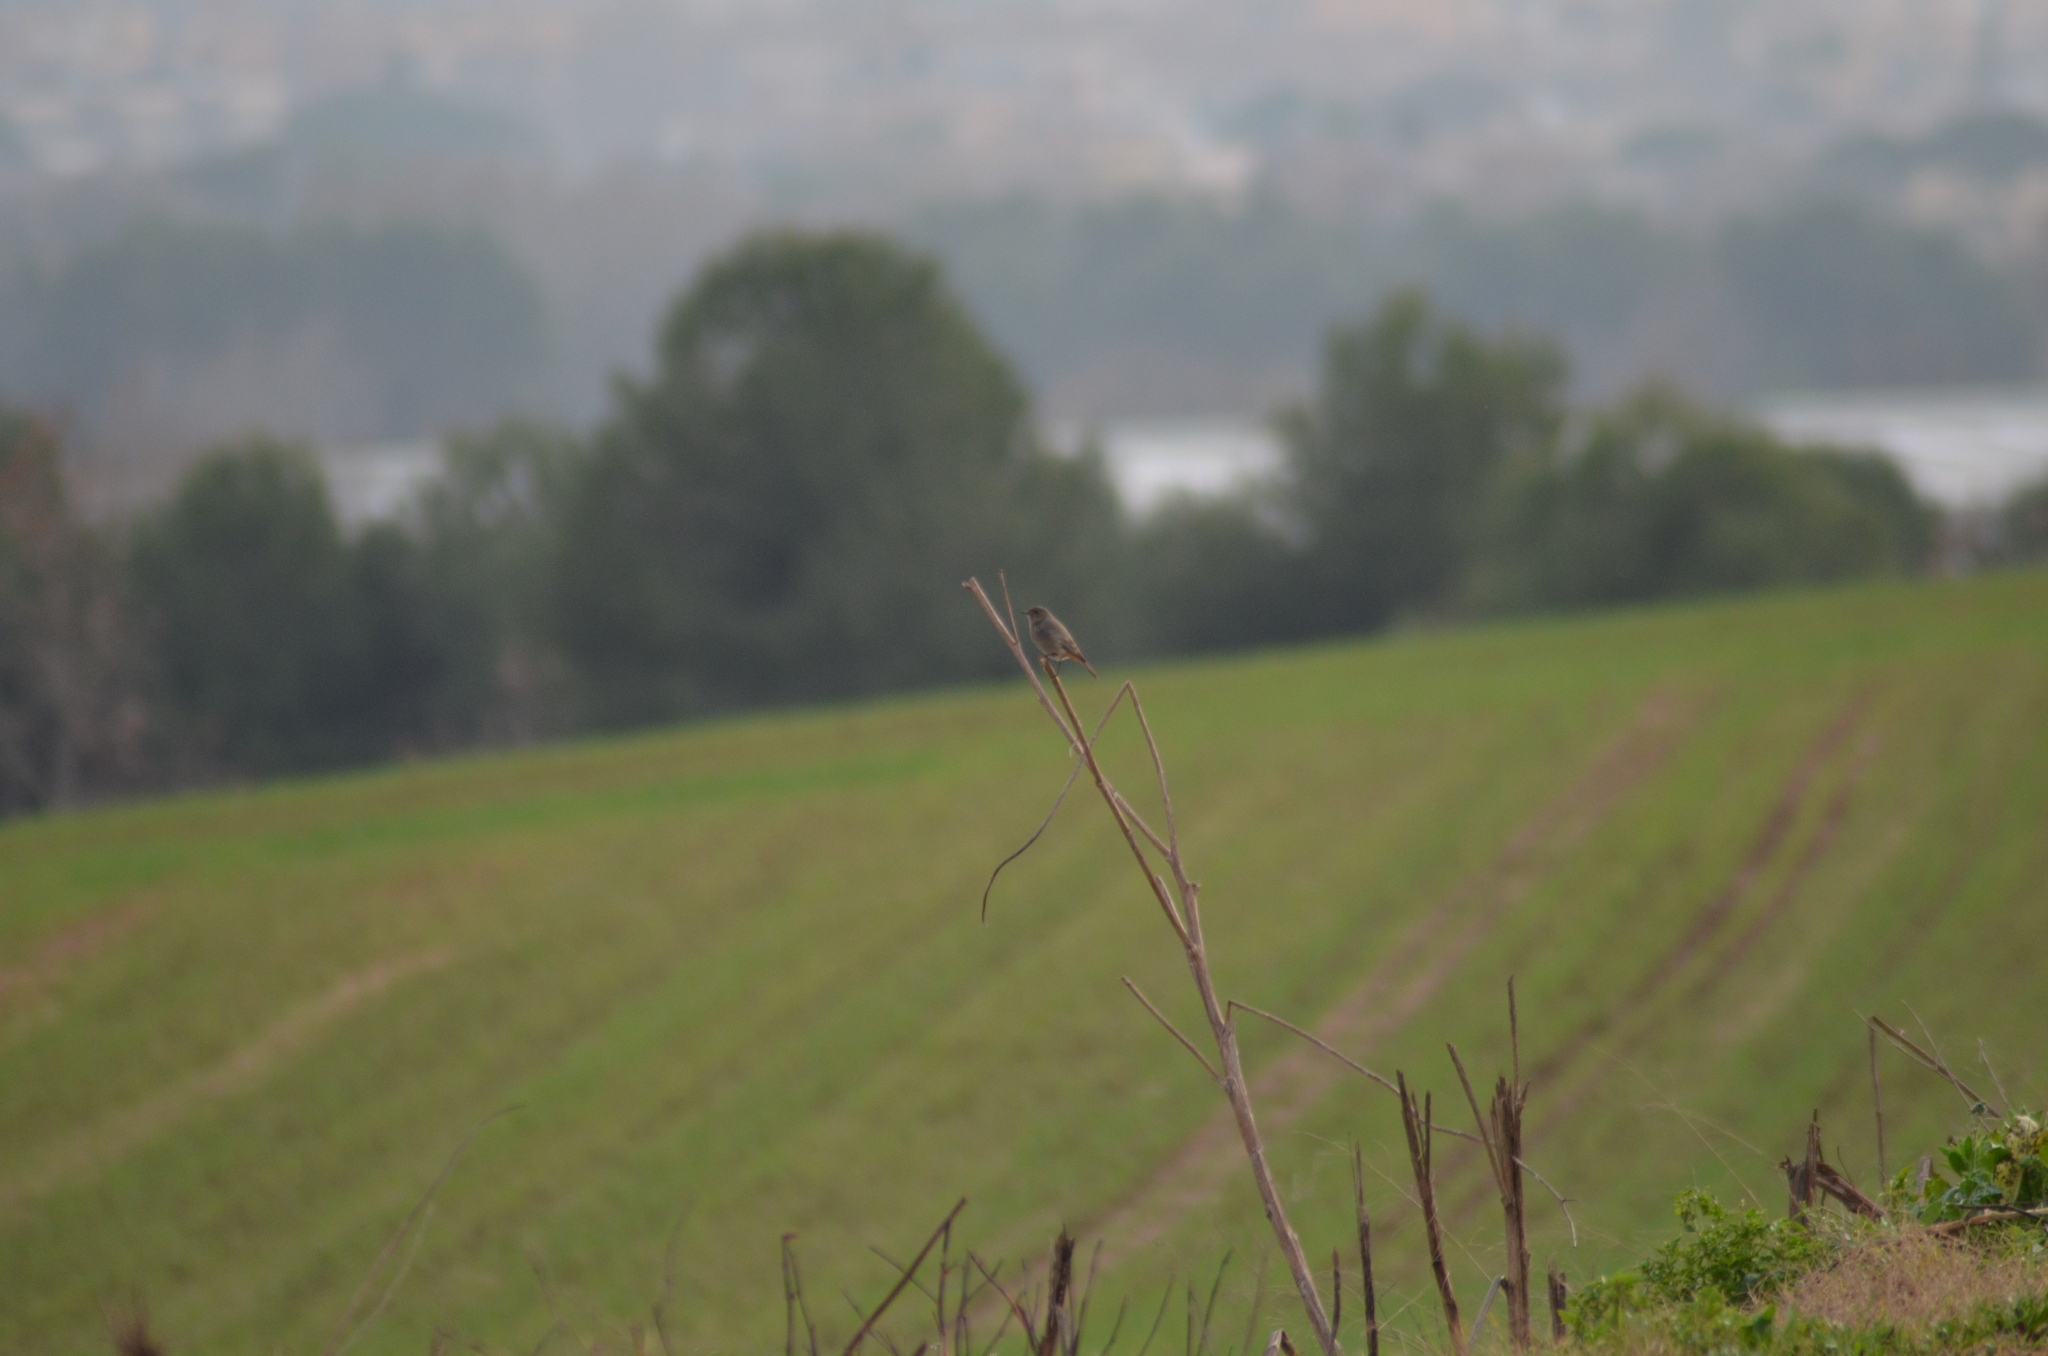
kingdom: Animalia
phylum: Chordata
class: Aves
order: Passeriformes
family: Muscicapidae
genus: Phoenicurus
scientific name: Phoenicurus ochruros
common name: Black redstart
